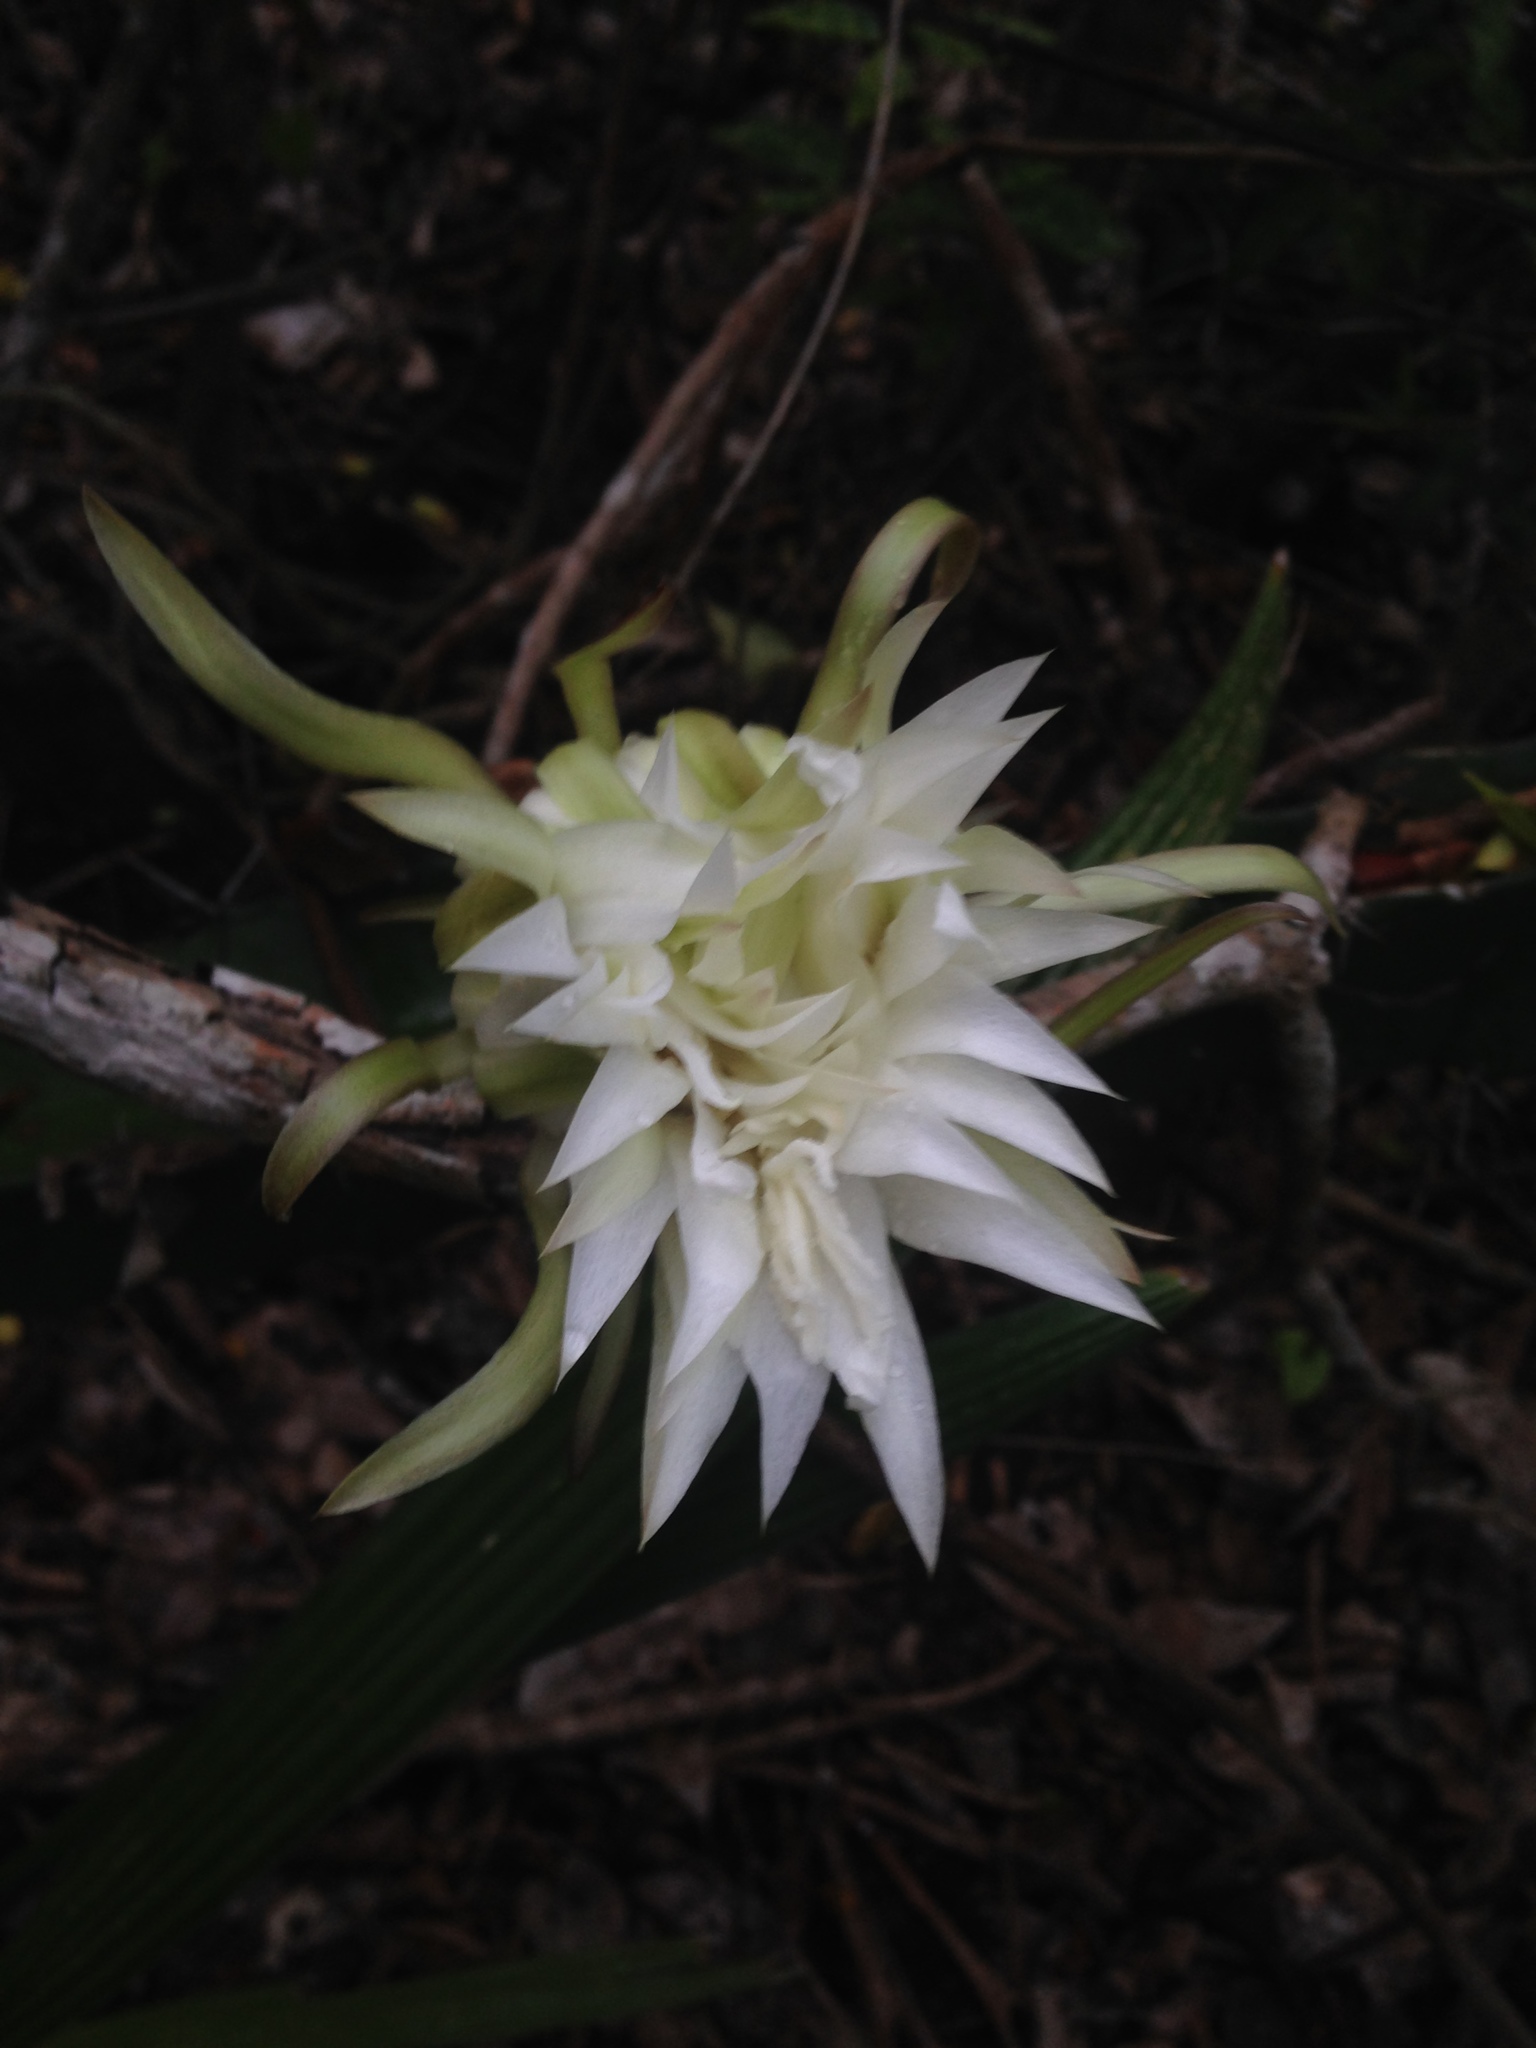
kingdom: Plantae
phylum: Tracheophyta
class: Magnoliopsida
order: Caryophyllales
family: Cactaceae
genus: Acanthocereus
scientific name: Acanthocereus tetragonus
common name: Triangle cactus
